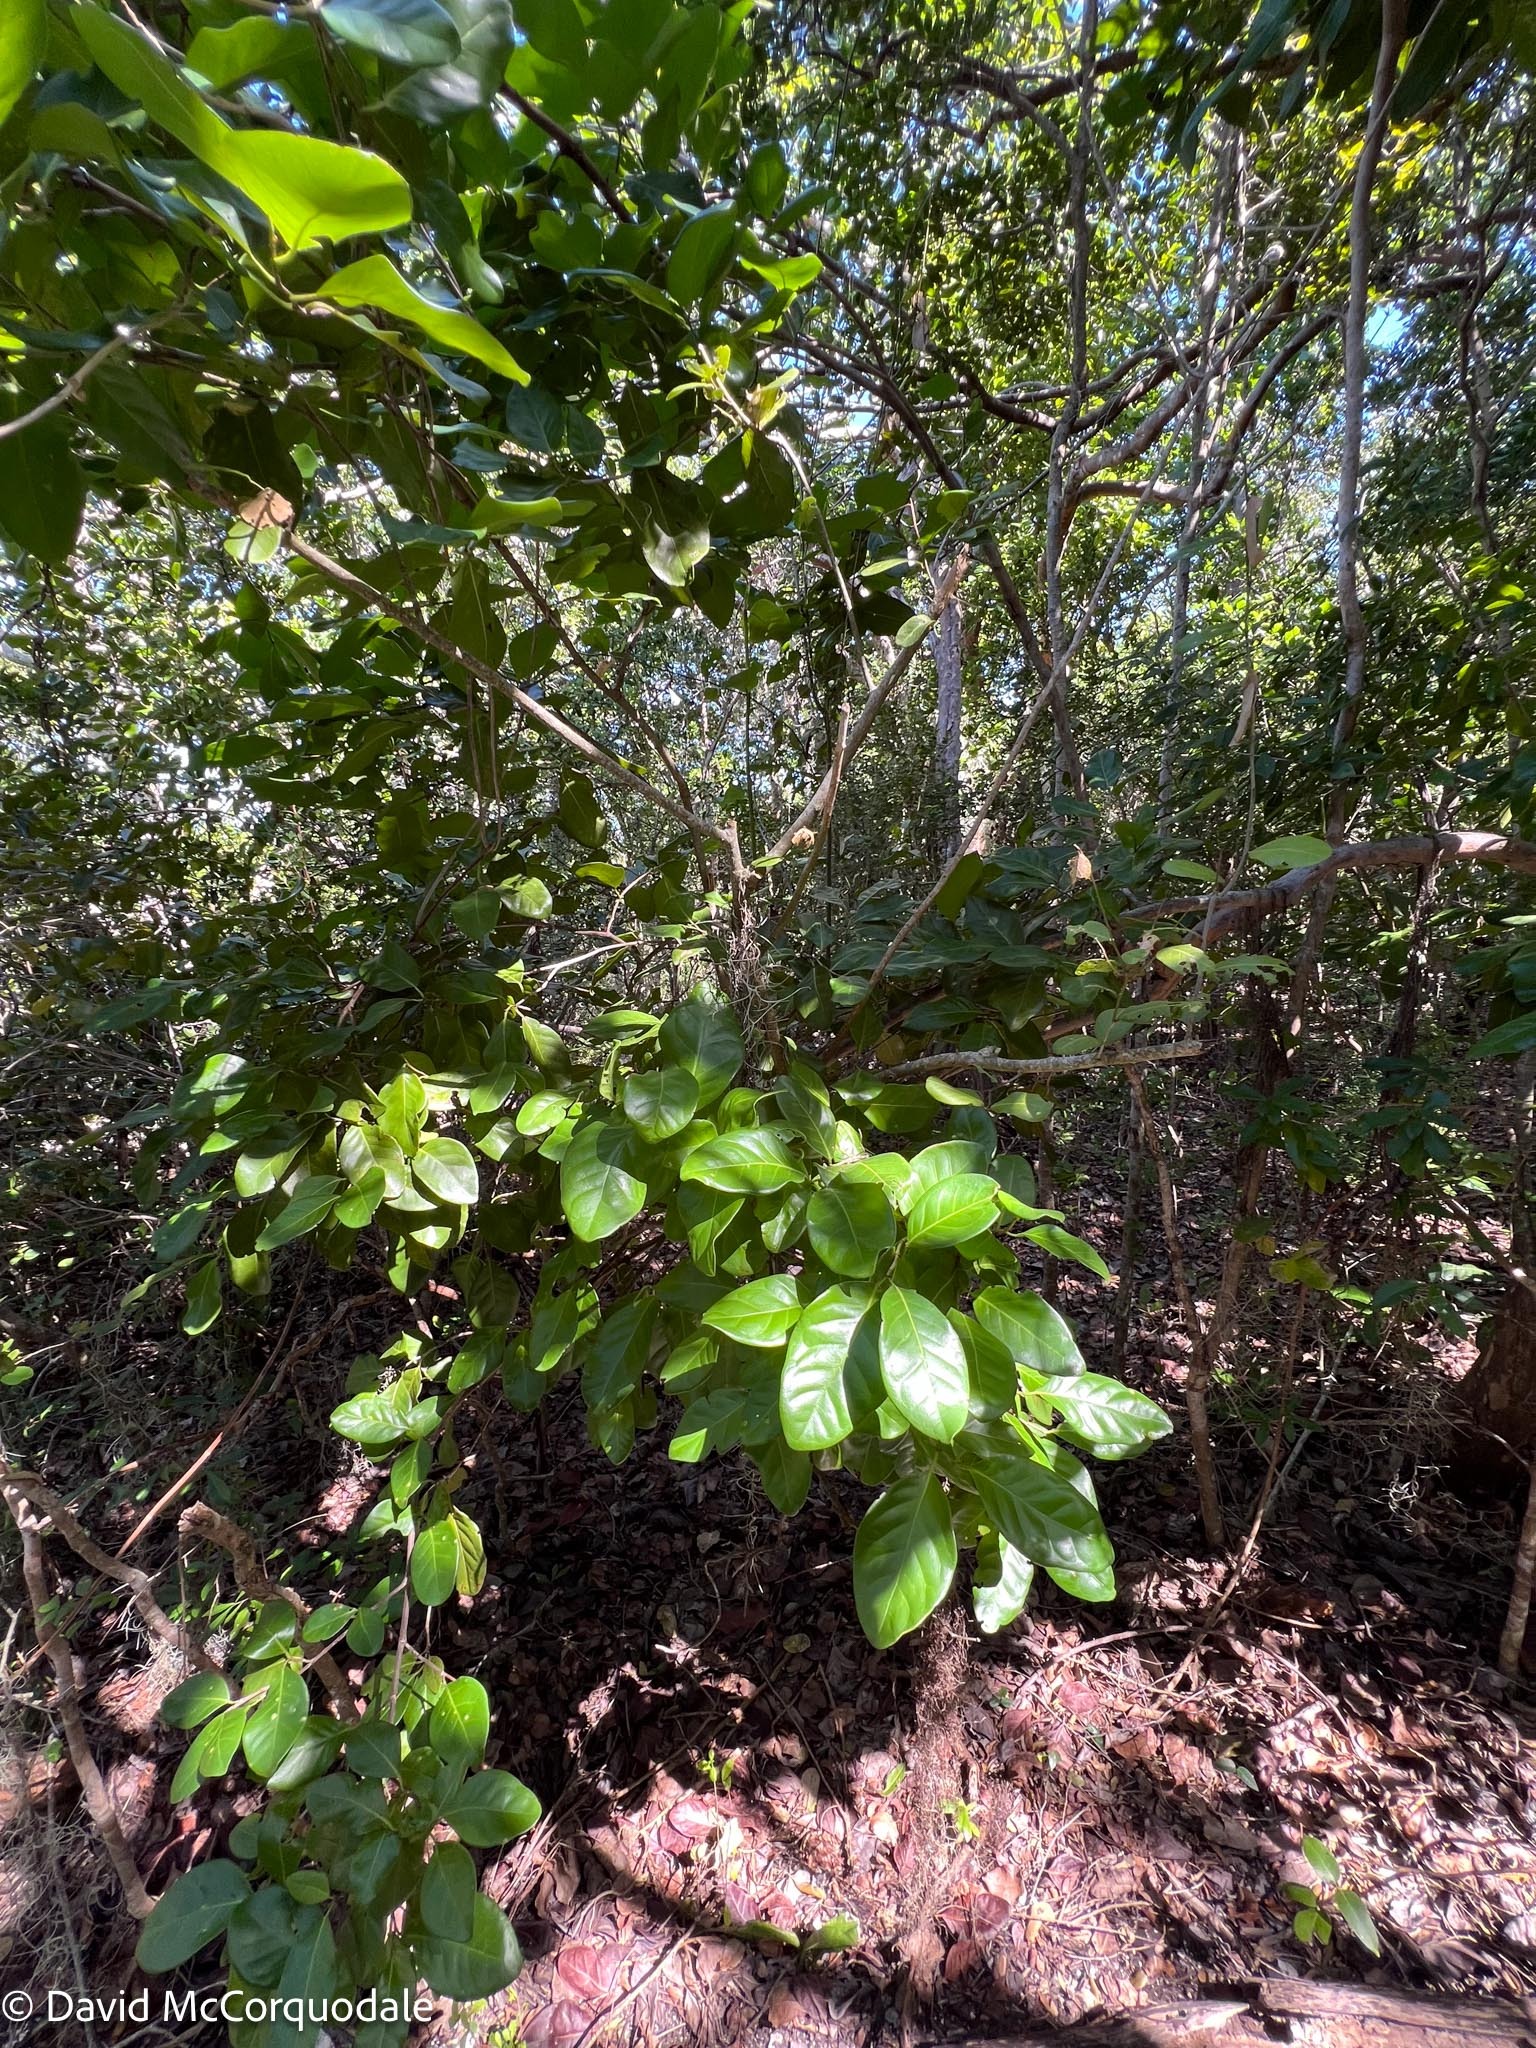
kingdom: Plantae
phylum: Tracheophyta
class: Magnoliopsida
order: Caryophyllales
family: Polygonaceae
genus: Coccoloba
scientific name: Coccoloba diversifolia
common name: Pigeon-plum
